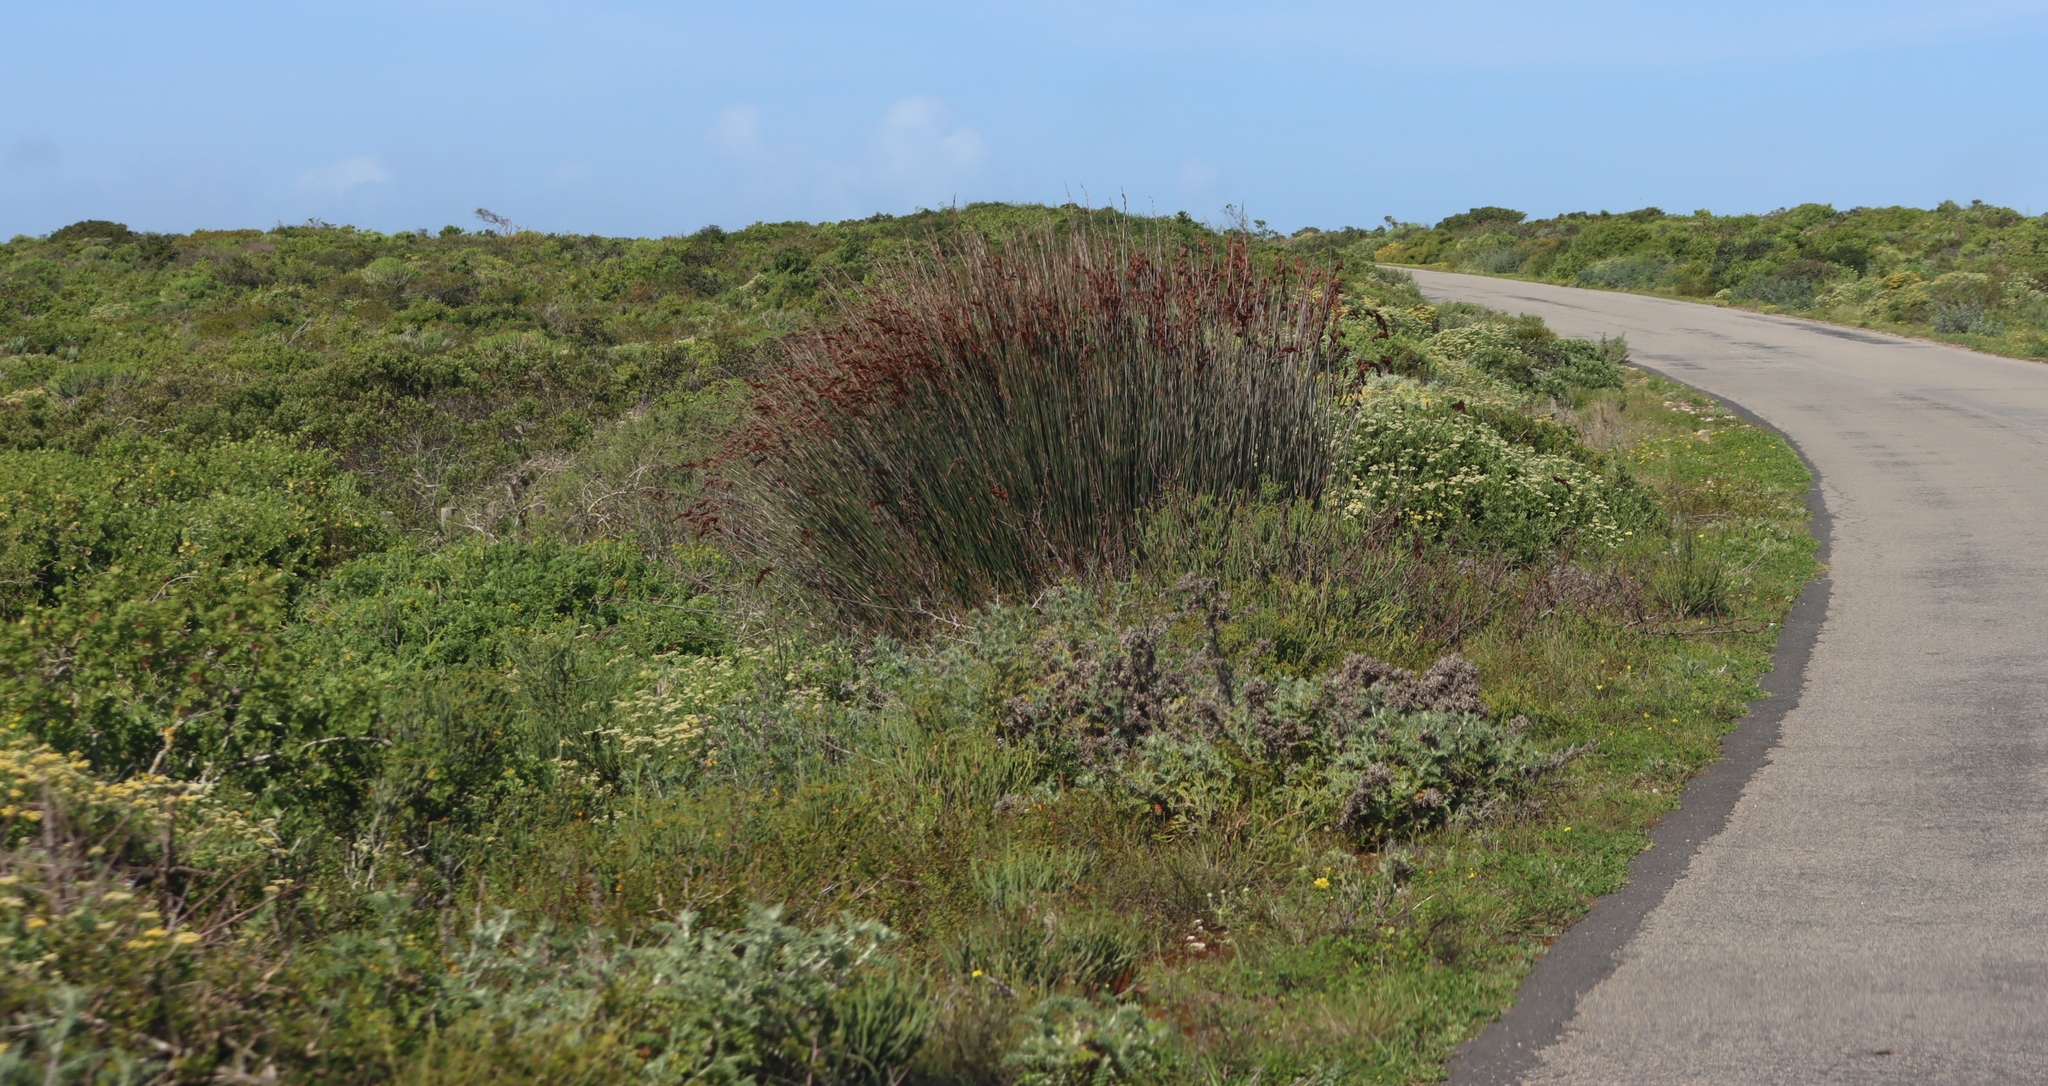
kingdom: Plantae
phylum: Tracheophyta
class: Liliopsida
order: Poales
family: Restionaceae
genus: Thamnochortus
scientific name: Thamnochortus spicigerus
